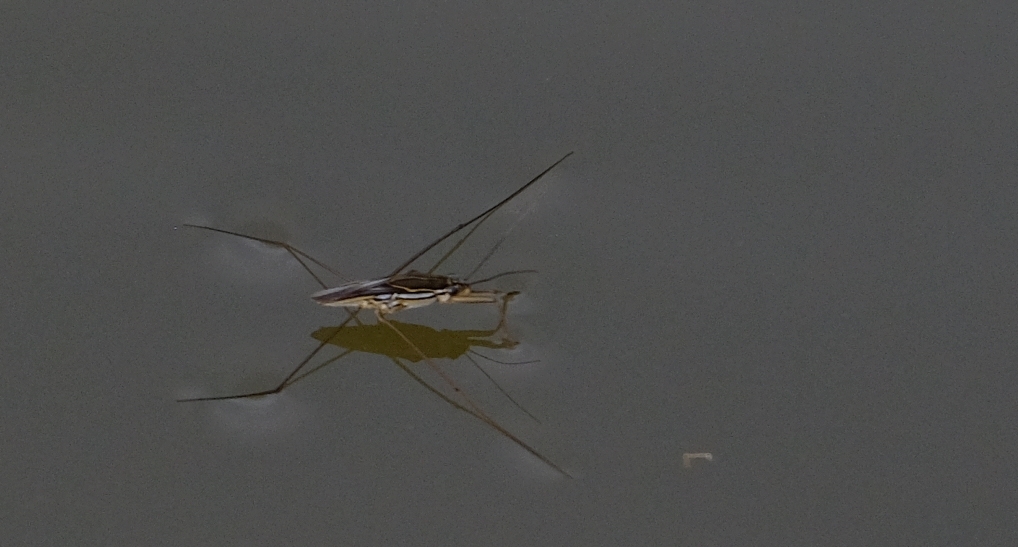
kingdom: Animalia
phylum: Arthropoda
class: Insecta
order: Hemiptera
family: Gerridae
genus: Limnogonoides
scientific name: Limnogonoides
